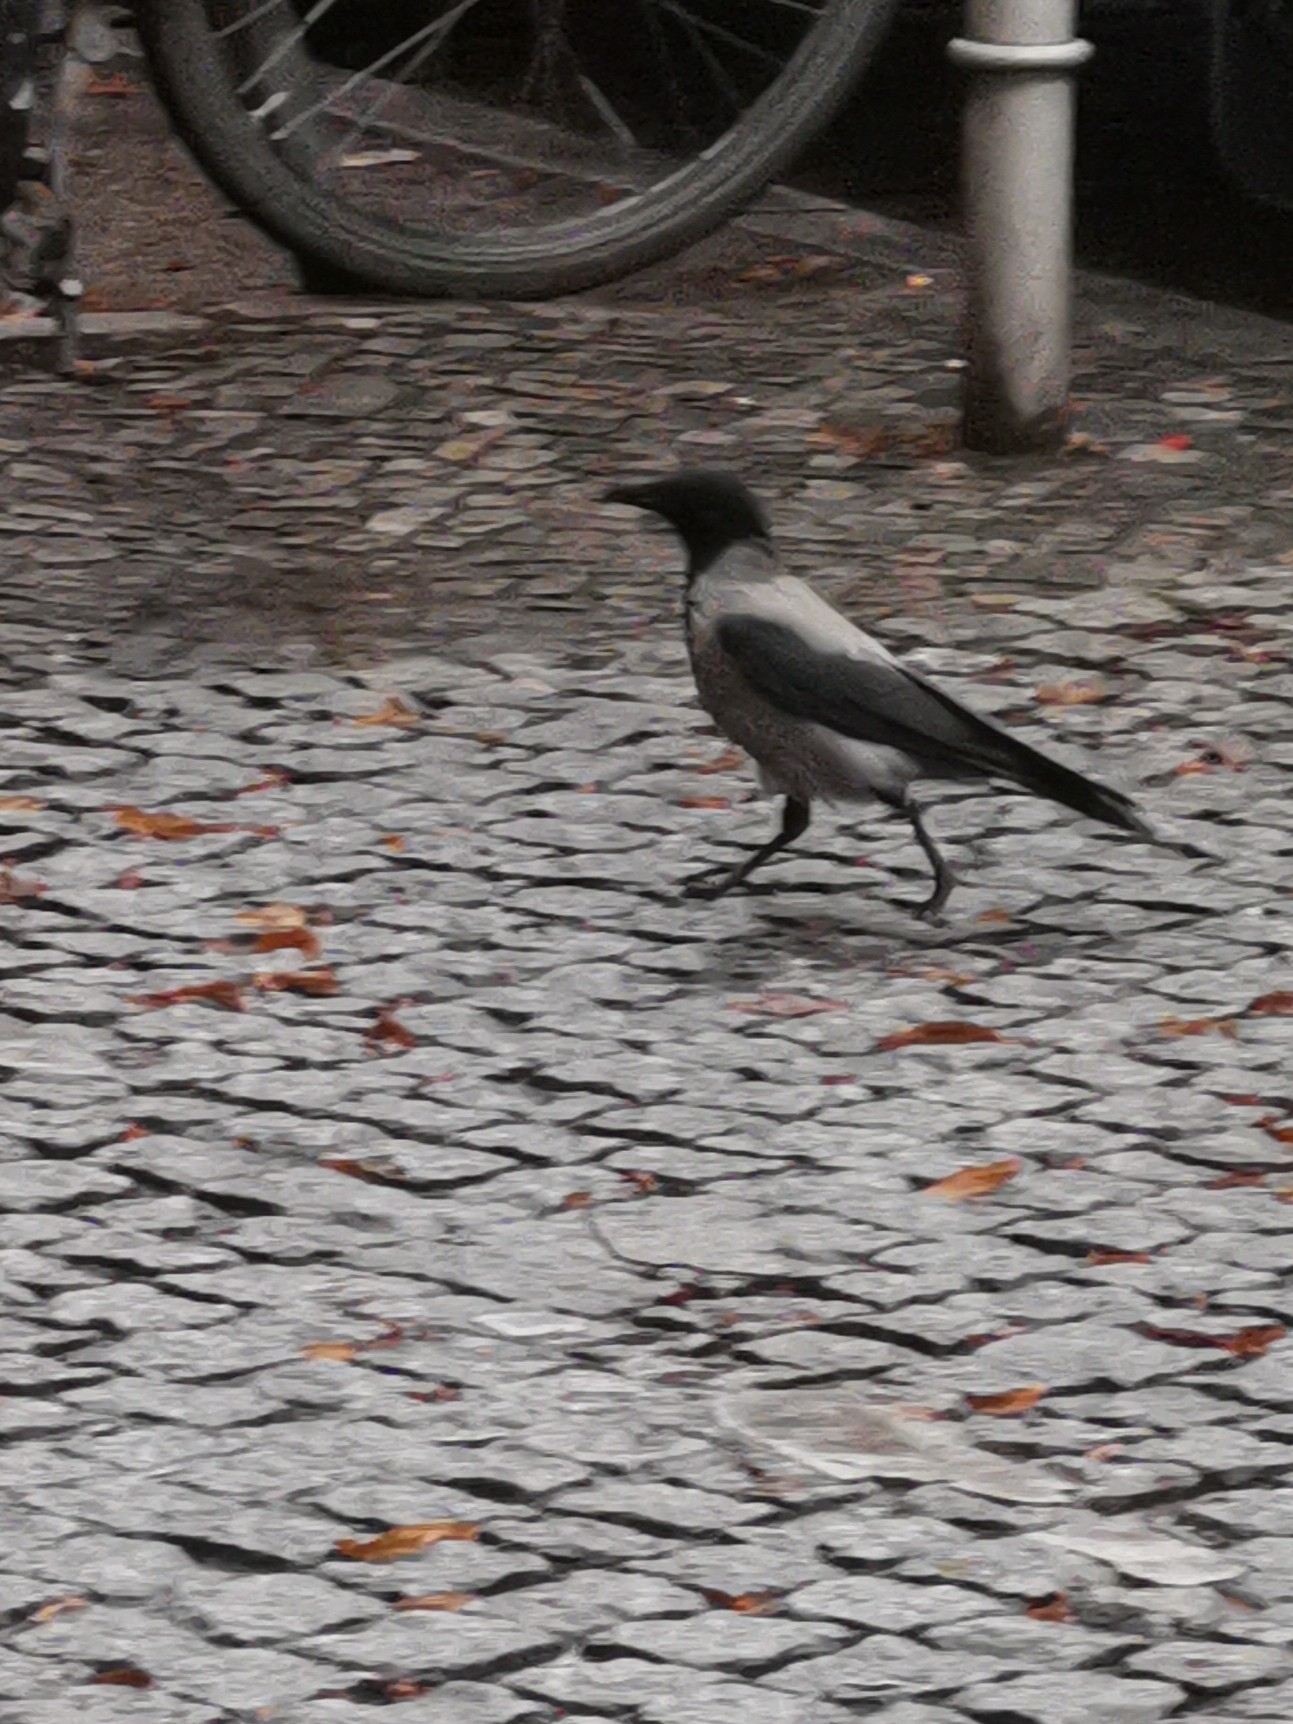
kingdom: Animalia
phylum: Chordata
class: Aves
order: Passeriformes
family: Corvidae
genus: Corvus
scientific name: Corvus cornix
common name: Hooded crow
